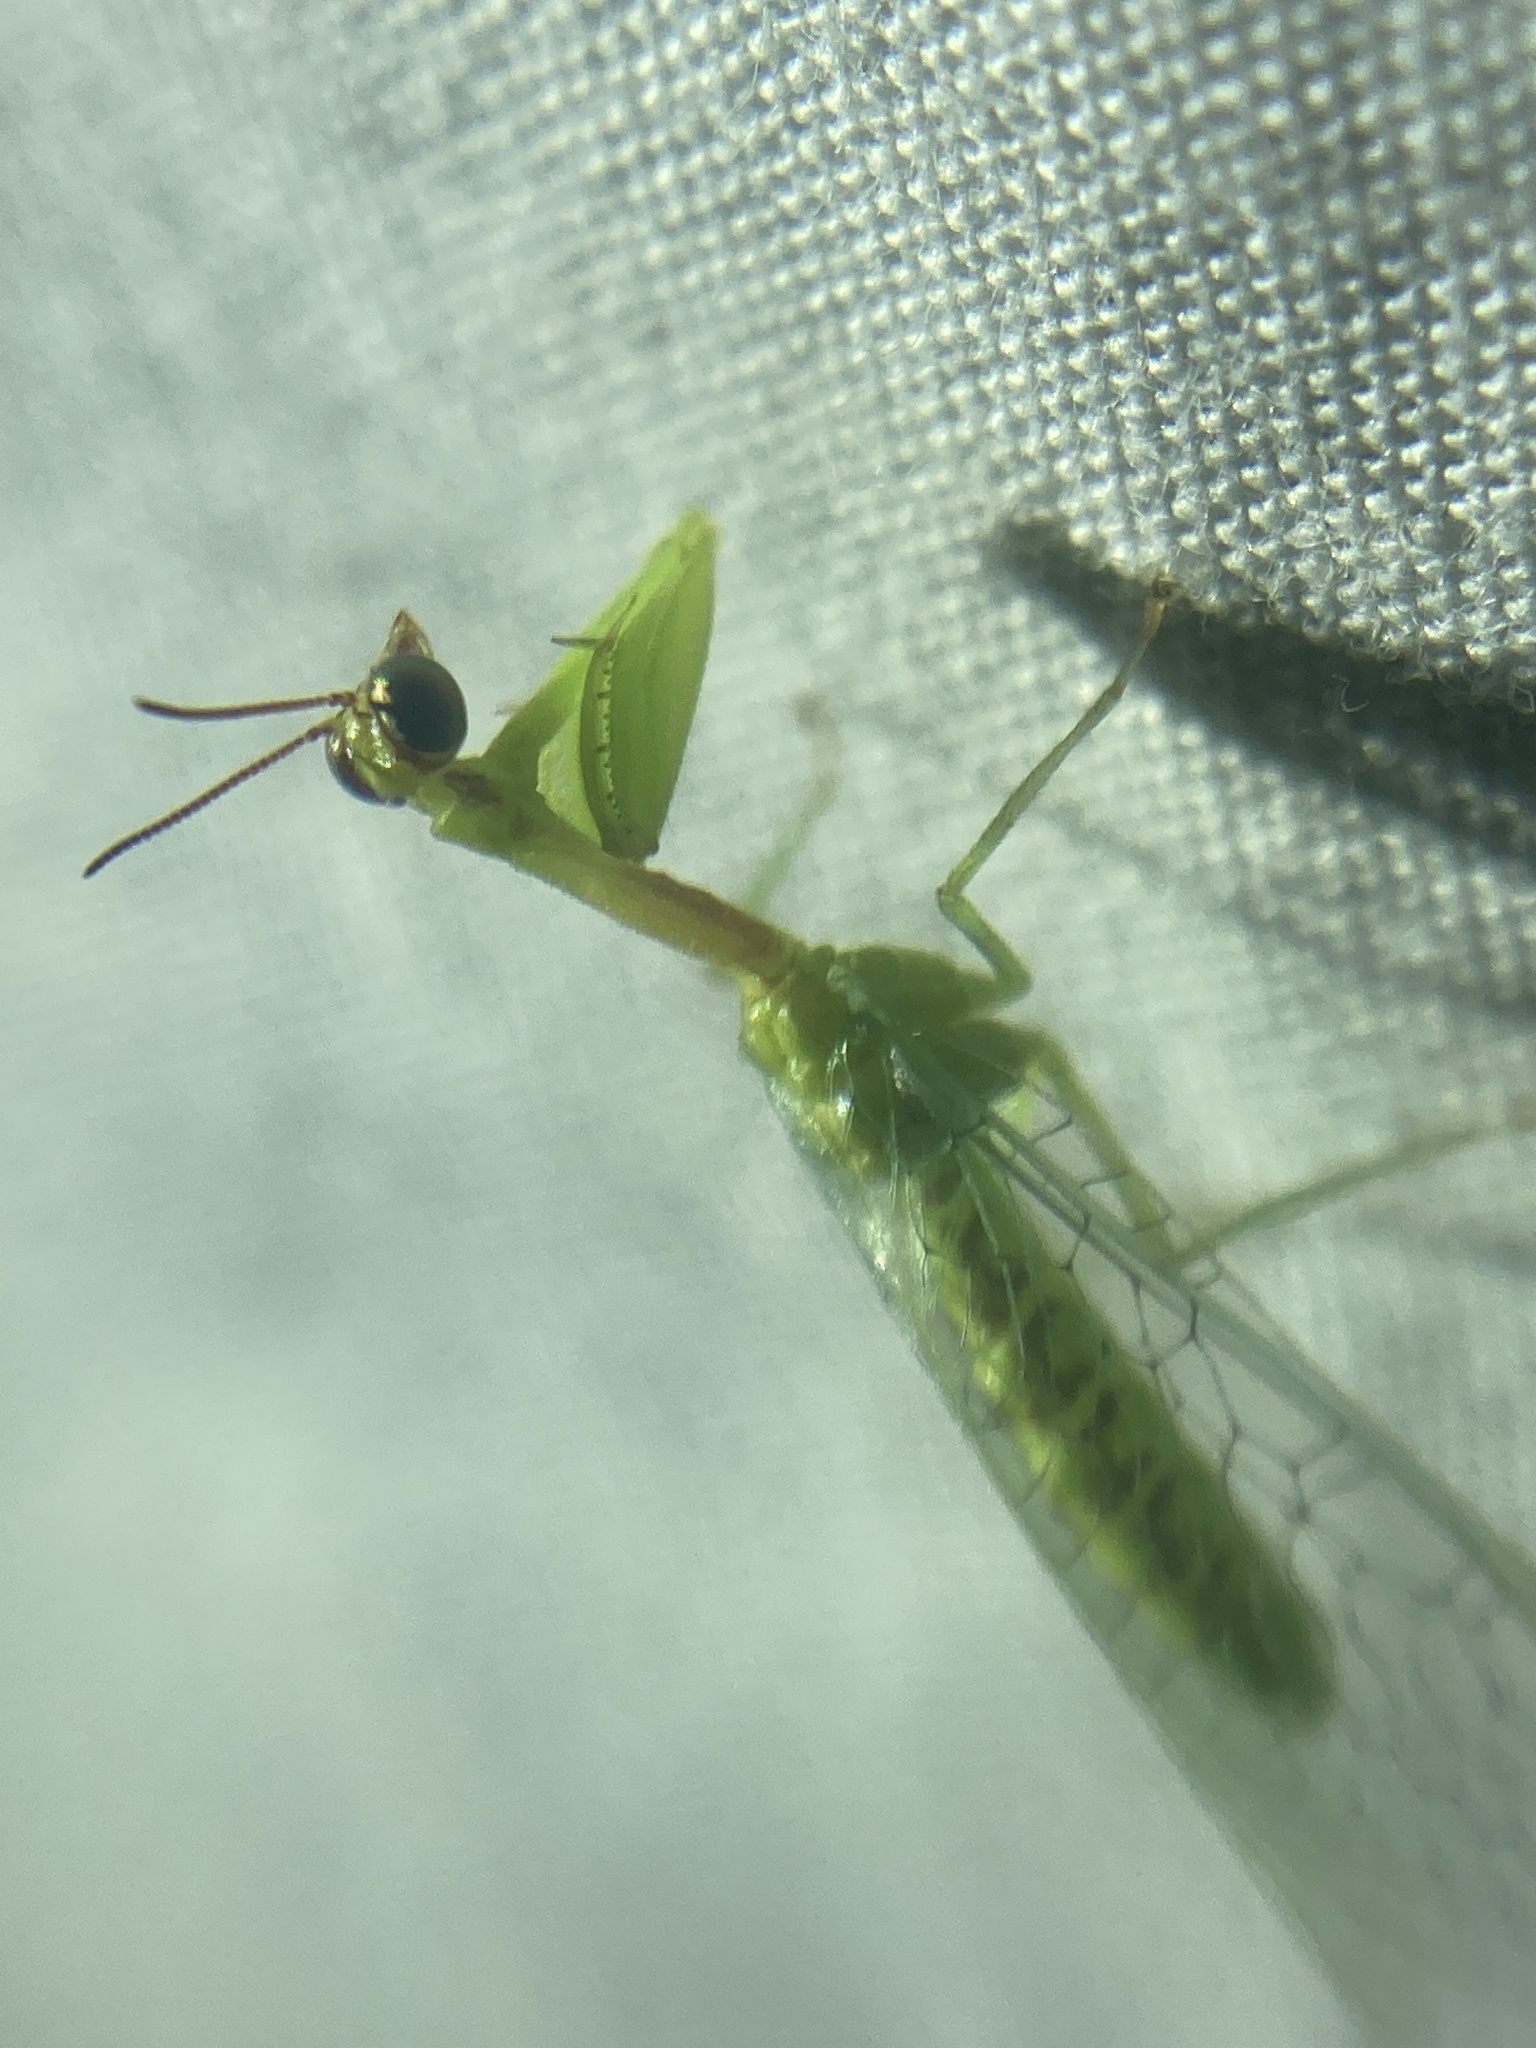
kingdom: Animalia
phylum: Arthropoda
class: Insecta
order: Neuroptera
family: Mantispidae
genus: Zeugomantispa
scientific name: Zeugomantispa minuta
